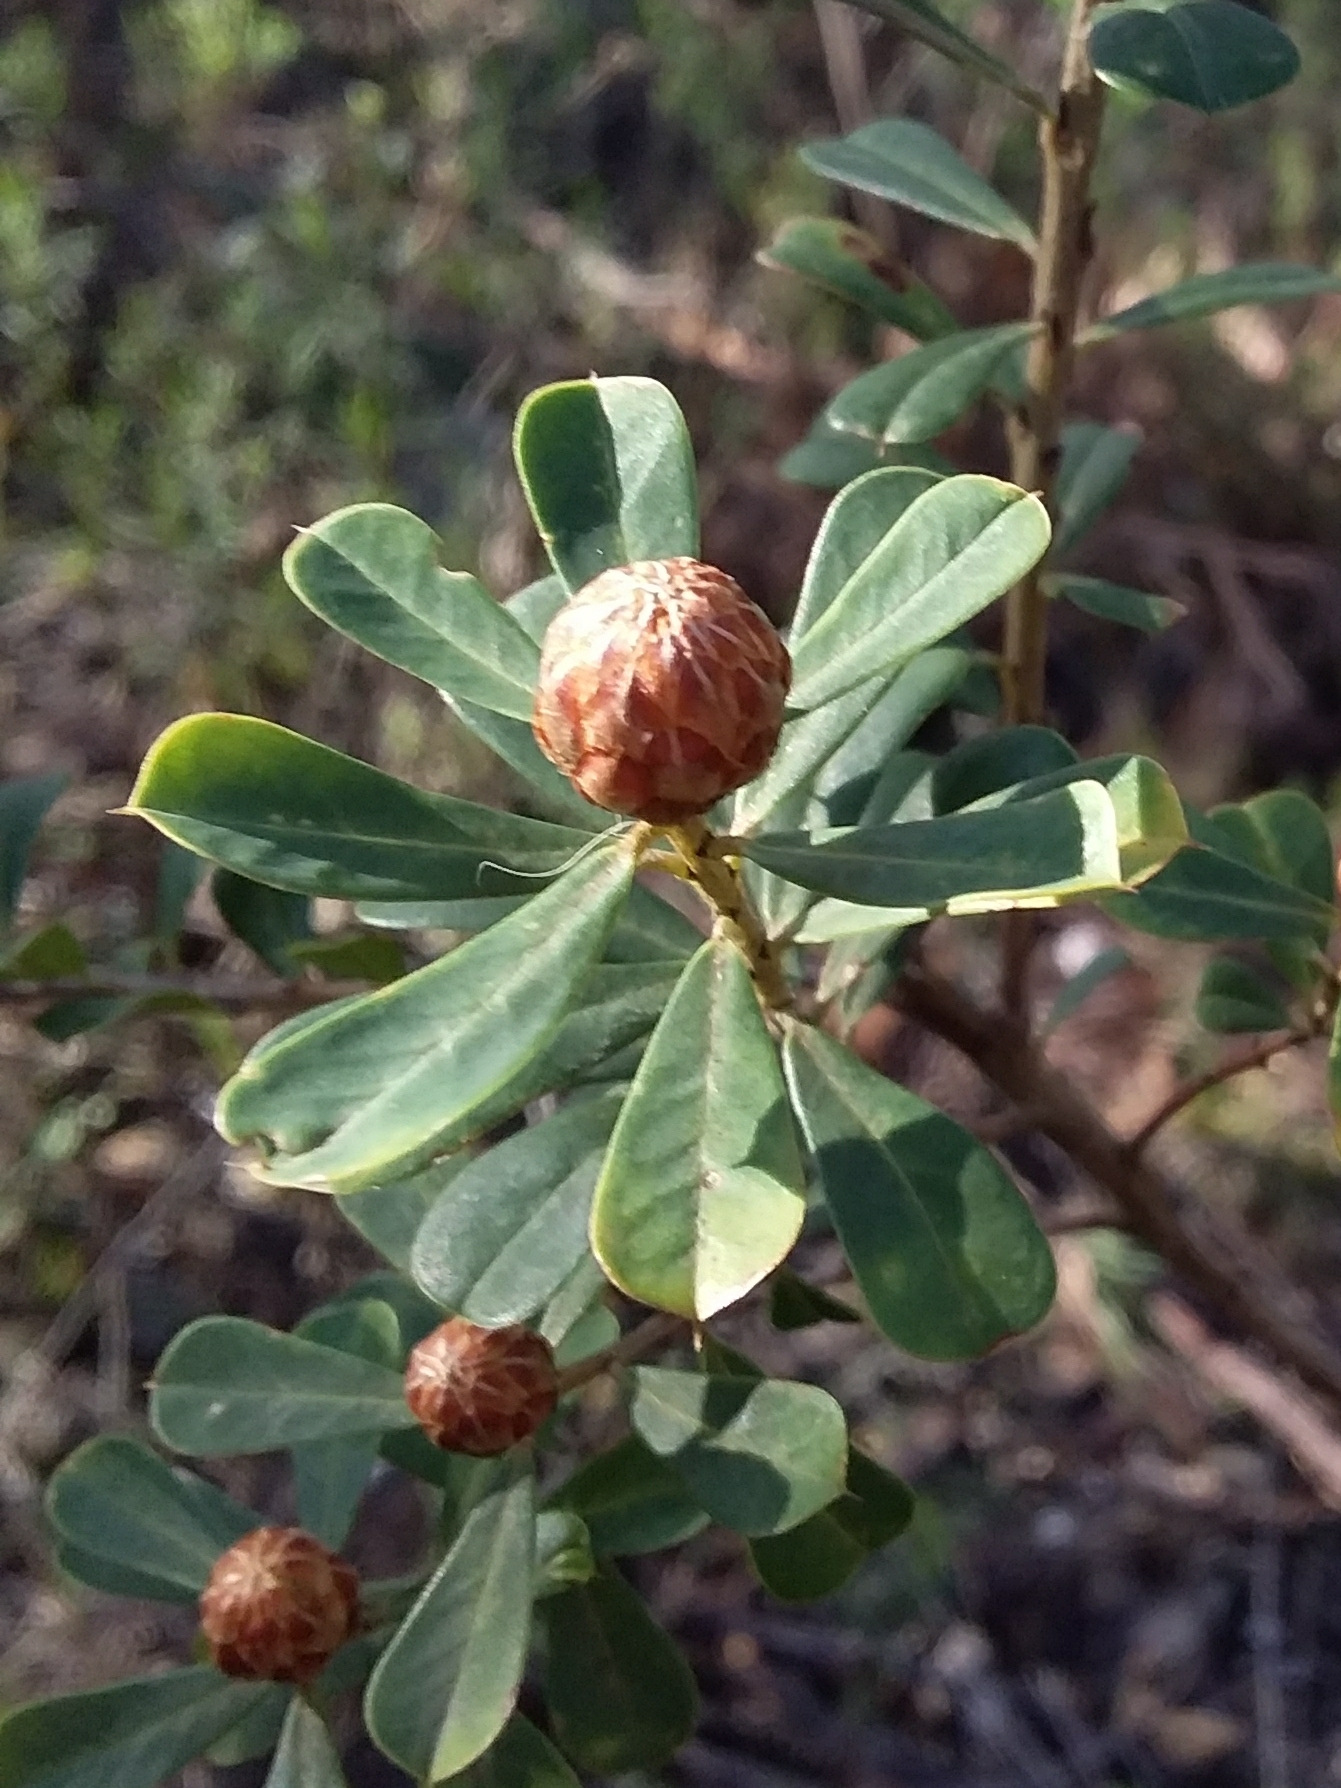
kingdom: Plantae
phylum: Tracheophyta
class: Magnoliopsida
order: Fabales
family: Fabaceae
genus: Pultenaea
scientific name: Pultenaea daphnoides
